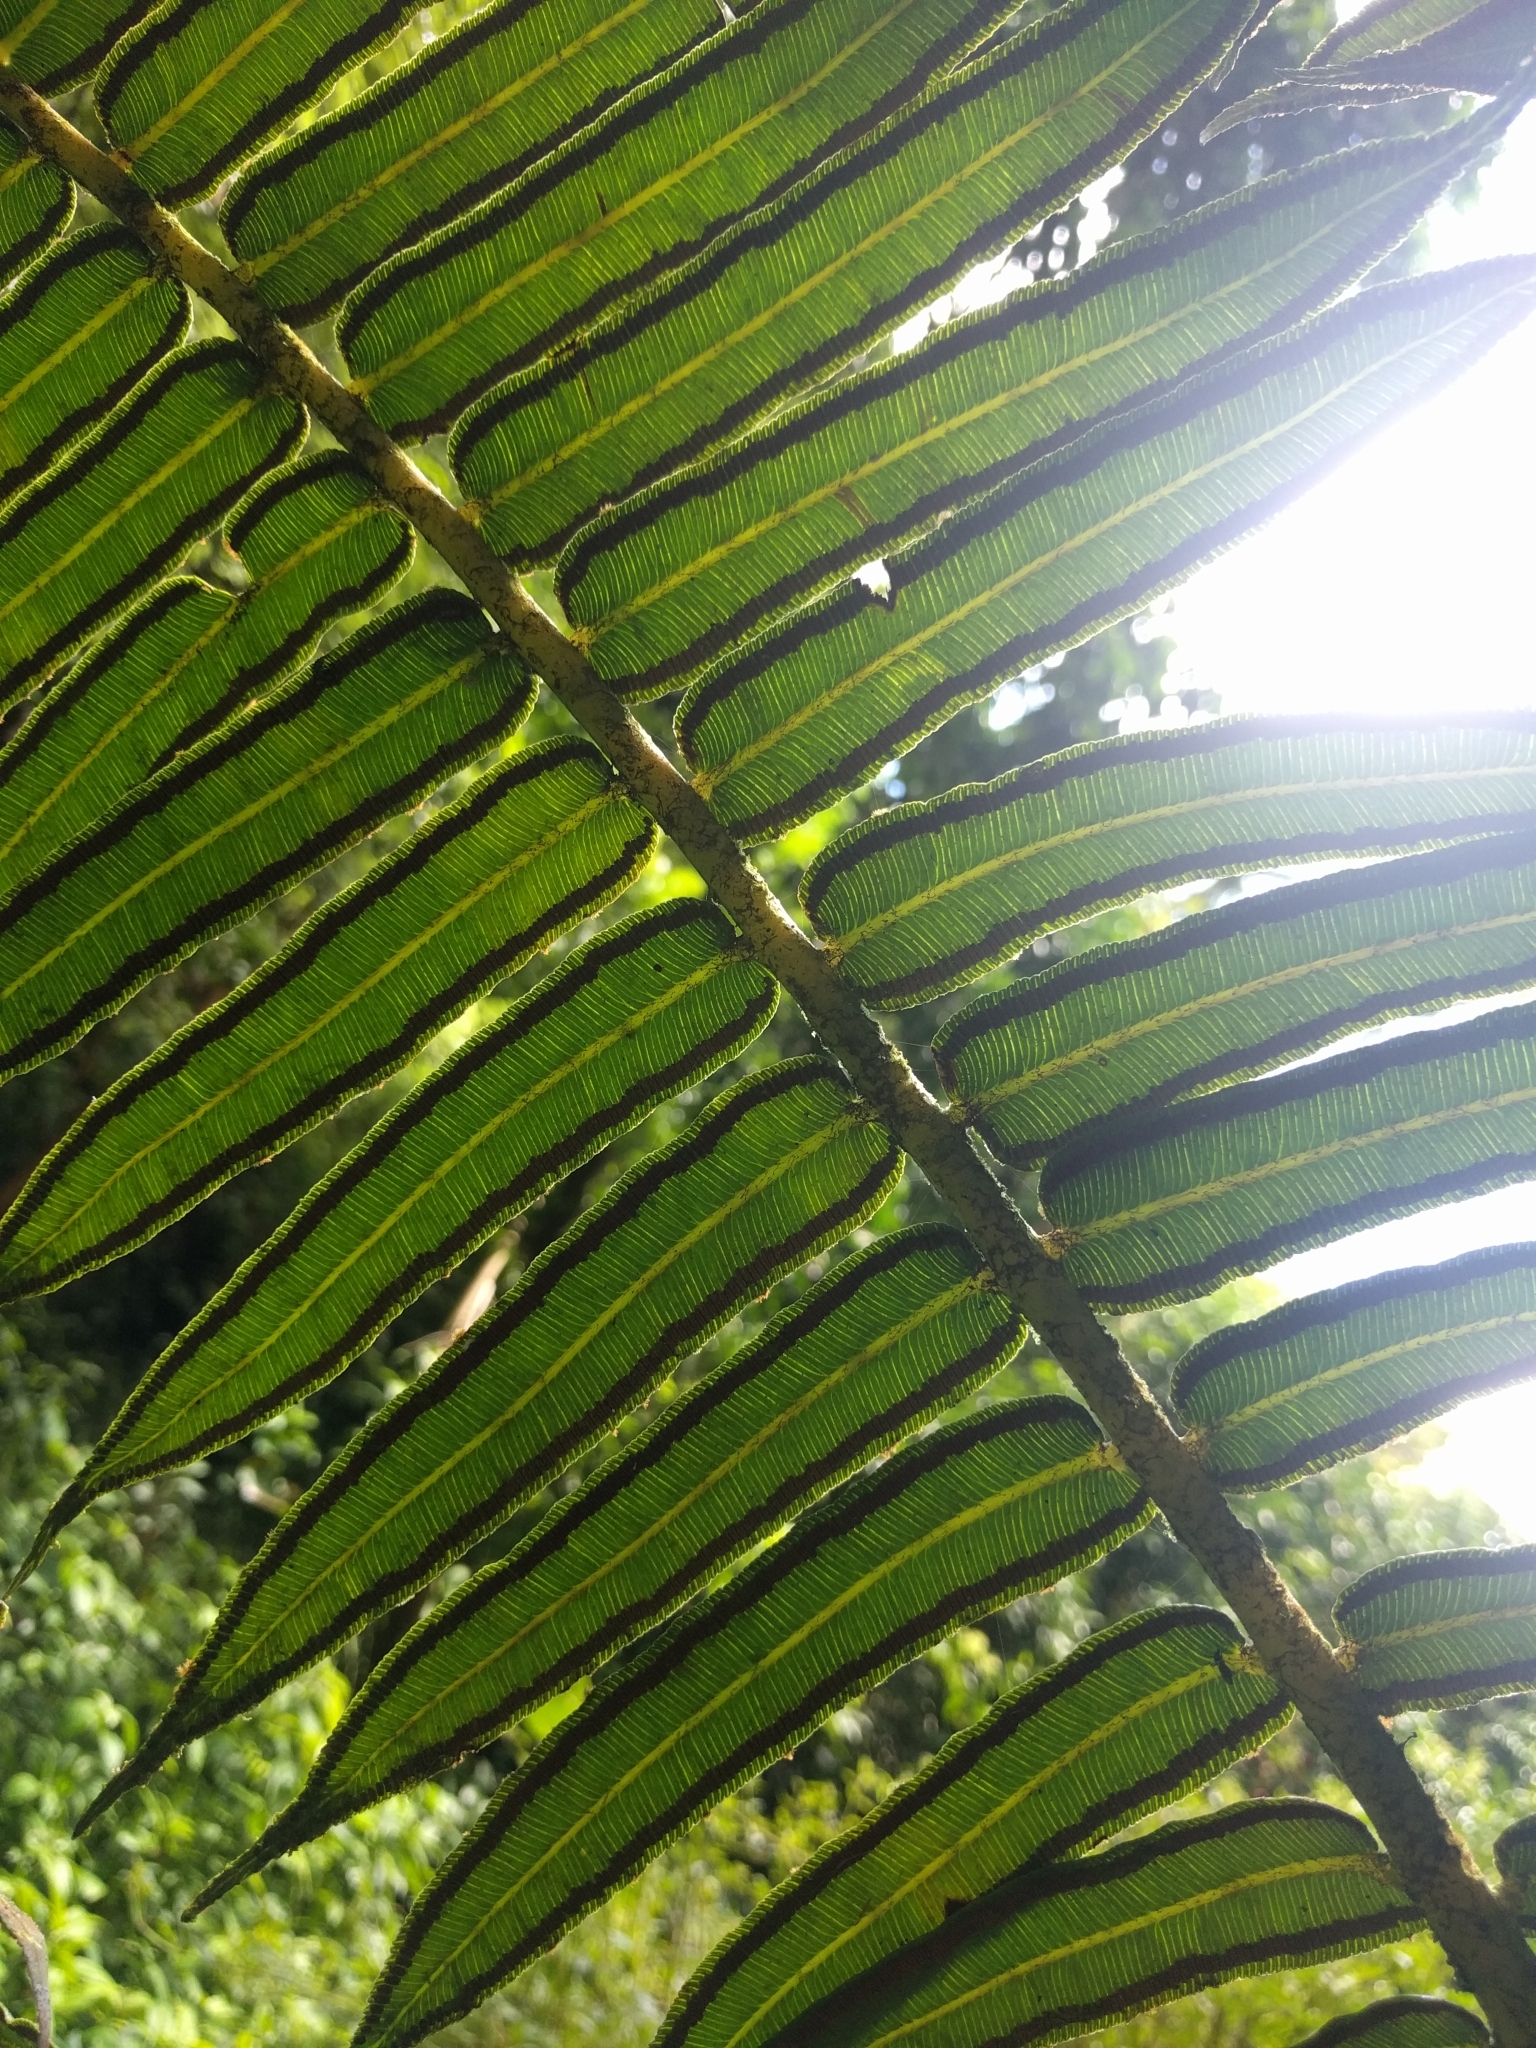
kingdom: Plantae
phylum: Tracheophyta
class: Polypodiopsida
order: Marattiales
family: Marattiaceae
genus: Angiopteris
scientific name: Angiopteris evecta
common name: Mule's-foot fern
